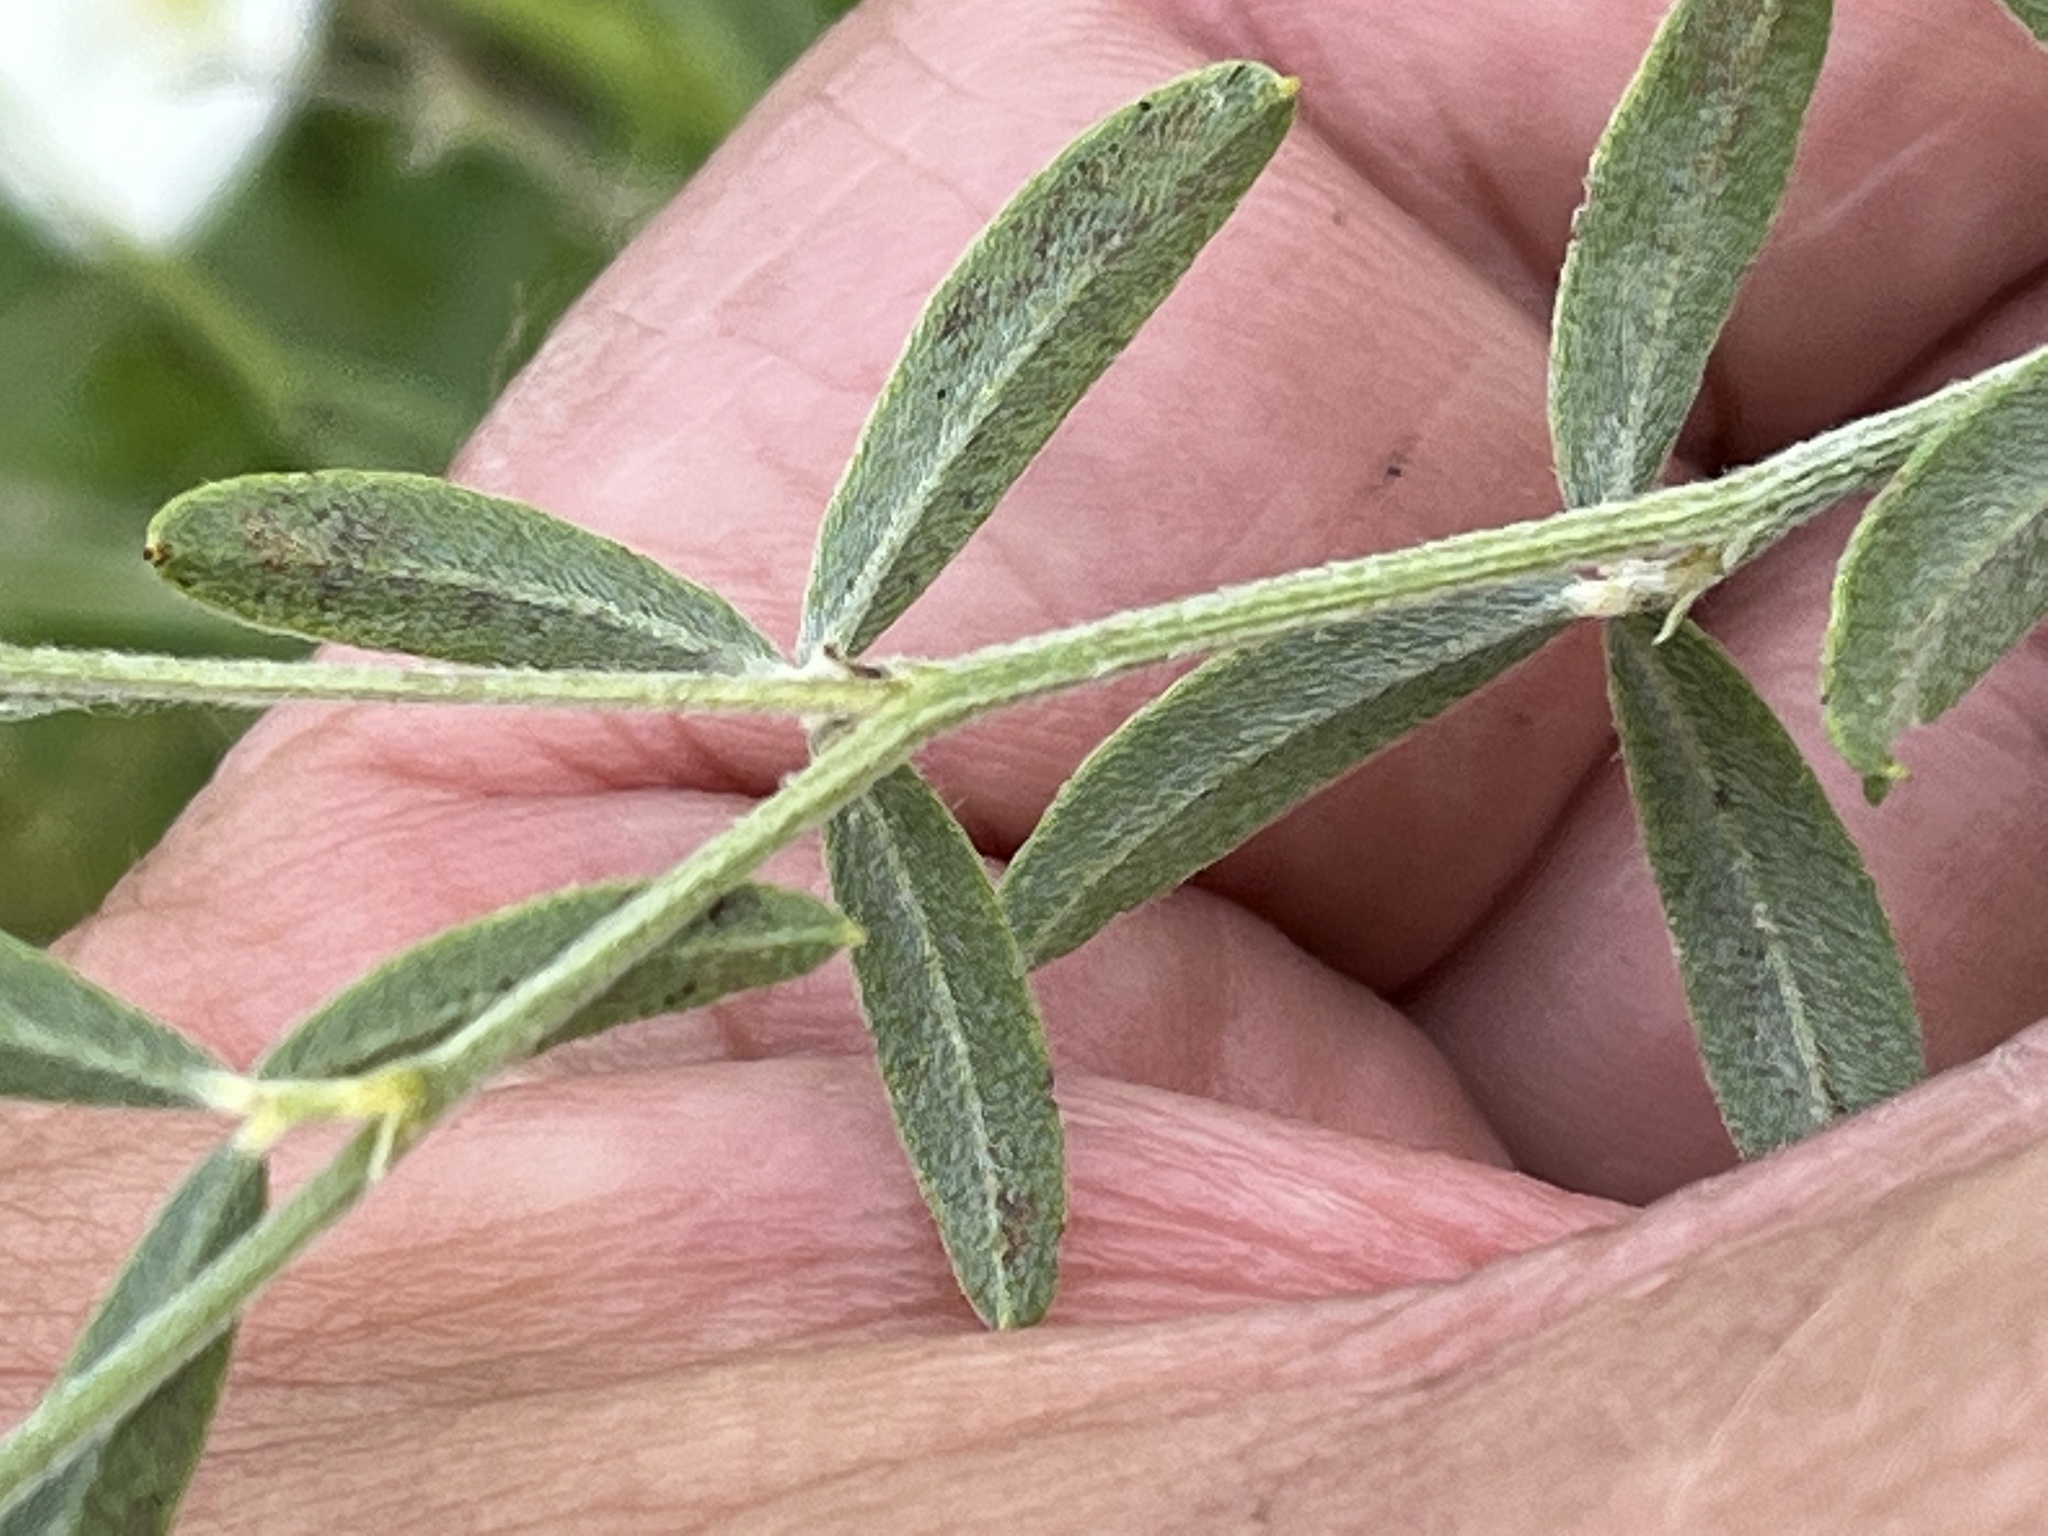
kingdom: Plantae
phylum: Tracheophyta
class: Magnoliopsida
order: Fabales
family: Fabaceae
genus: Pediomelum
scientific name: Pediomelum tenuiflorum
